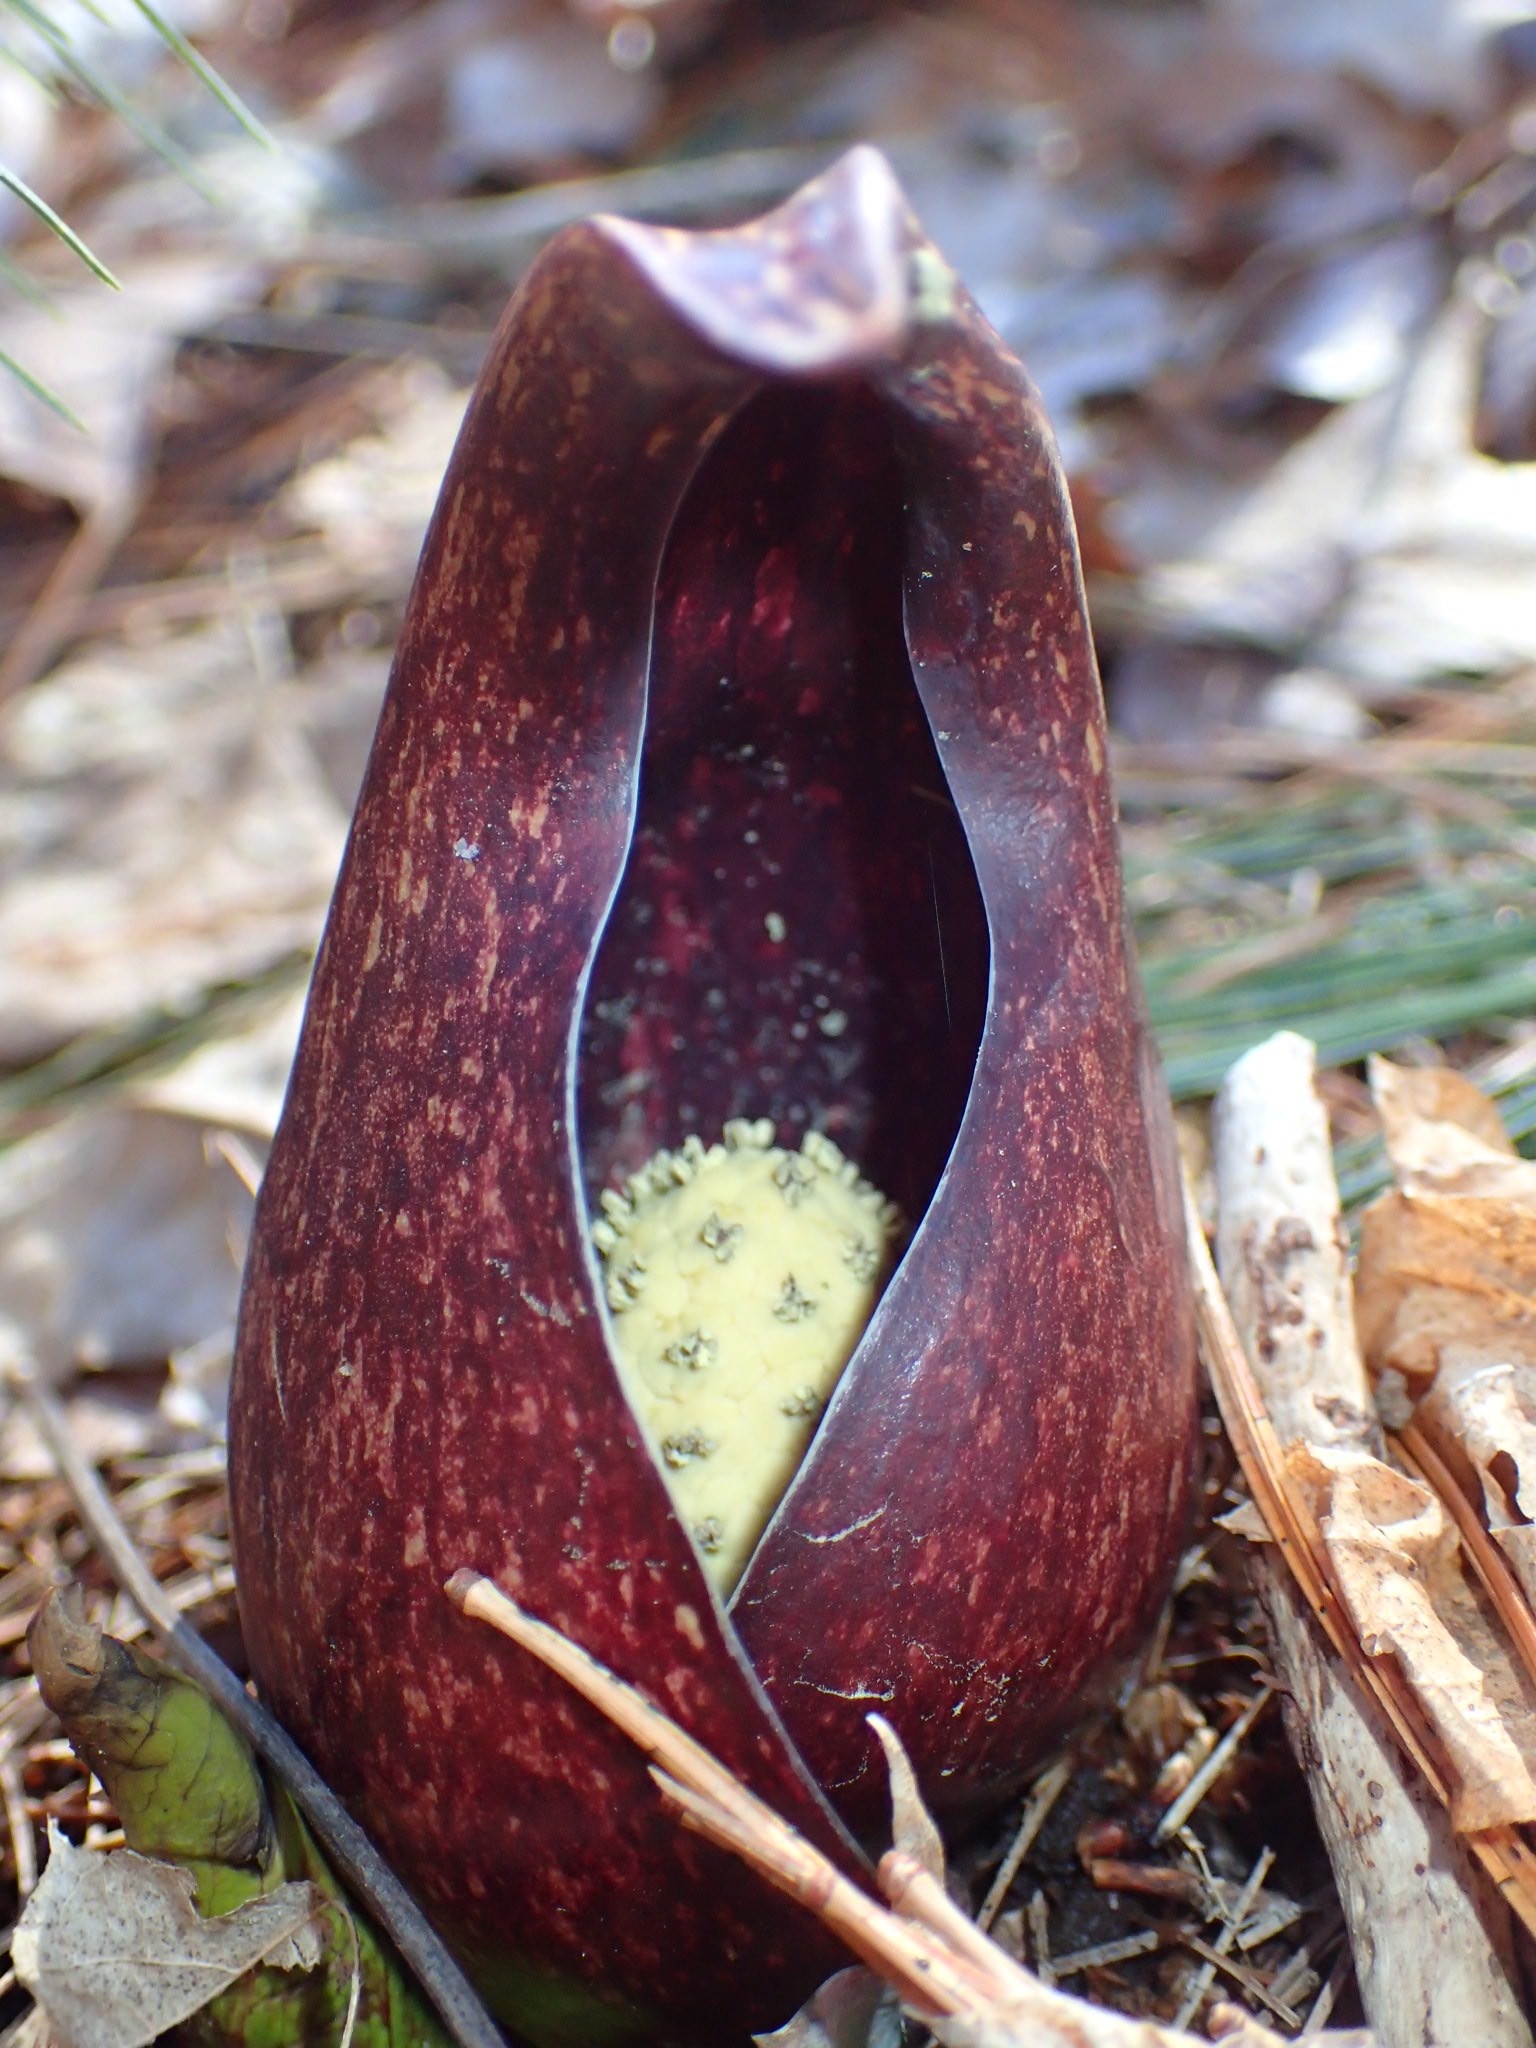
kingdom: Plantae
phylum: Tracheophyta
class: Liliopsida
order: Alismatales
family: Araceae
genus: Symplocarpus
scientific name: Symplocarpus foetidus
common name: Eastern skunk cabbage
